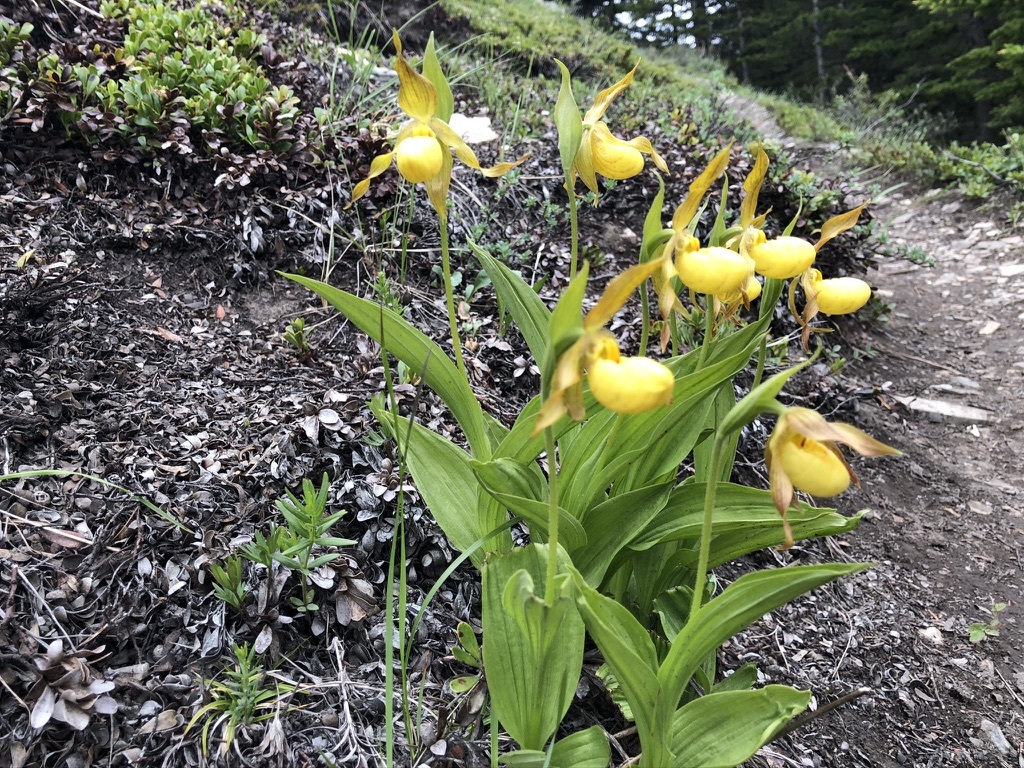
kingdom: Plantae
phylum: Tracheophyta
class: Liliopsida
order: Asparagales
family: Orchidaceae
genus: Cypripedium
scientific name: Cypripedium parviflorum
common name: American yellow lady's-slipper
